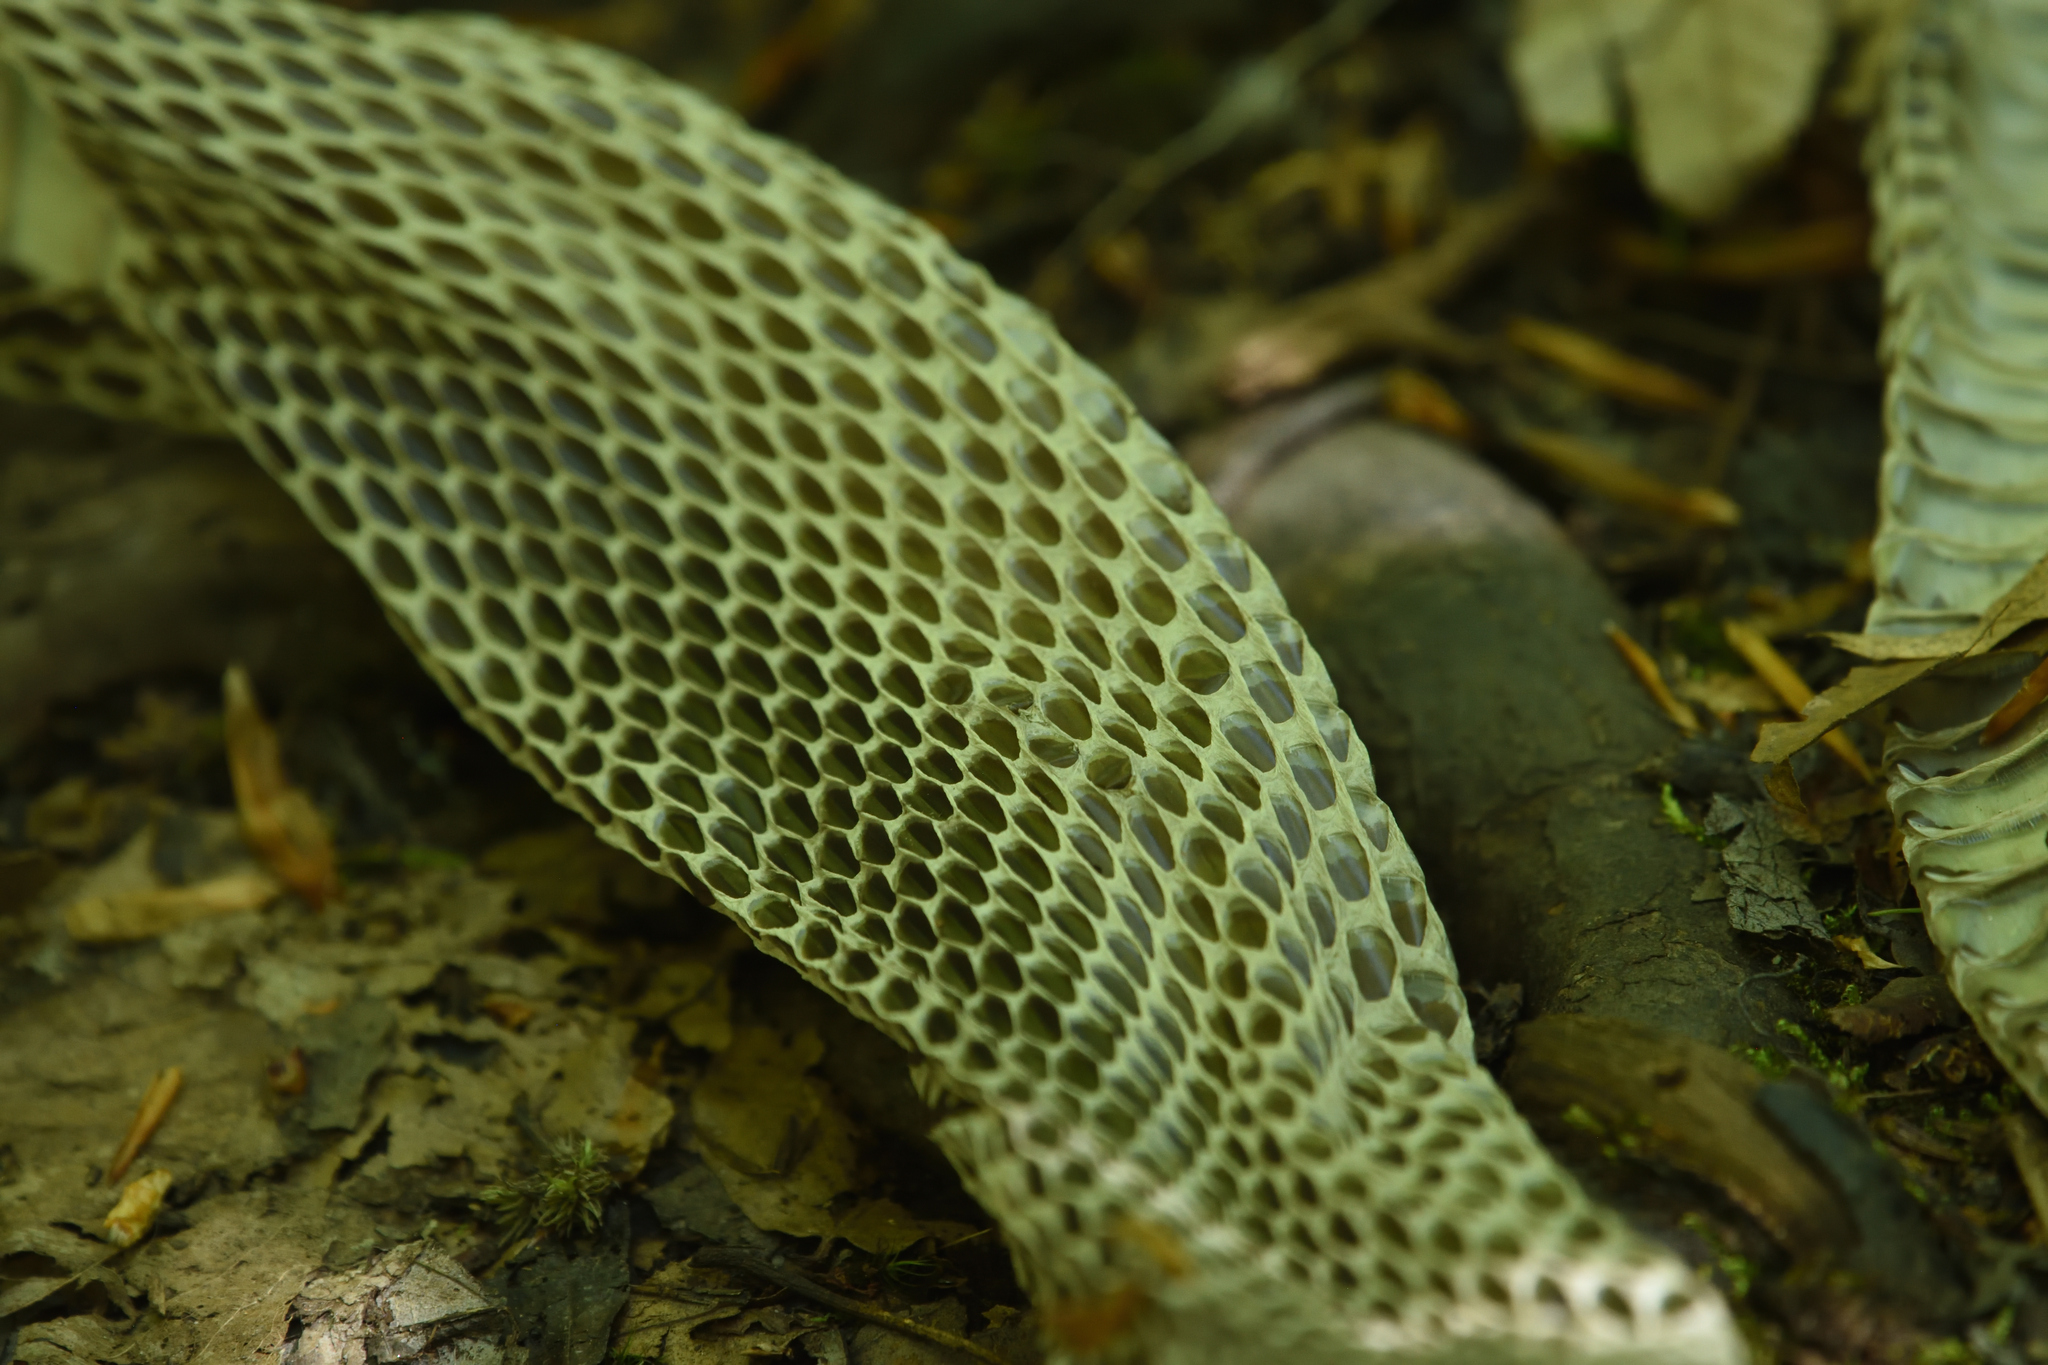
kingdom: Animalia
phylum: Chordata
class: Squamata
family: Colubridae
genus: Pantherophis
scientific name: Pantherophis spiloides
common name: Gray rat snake
